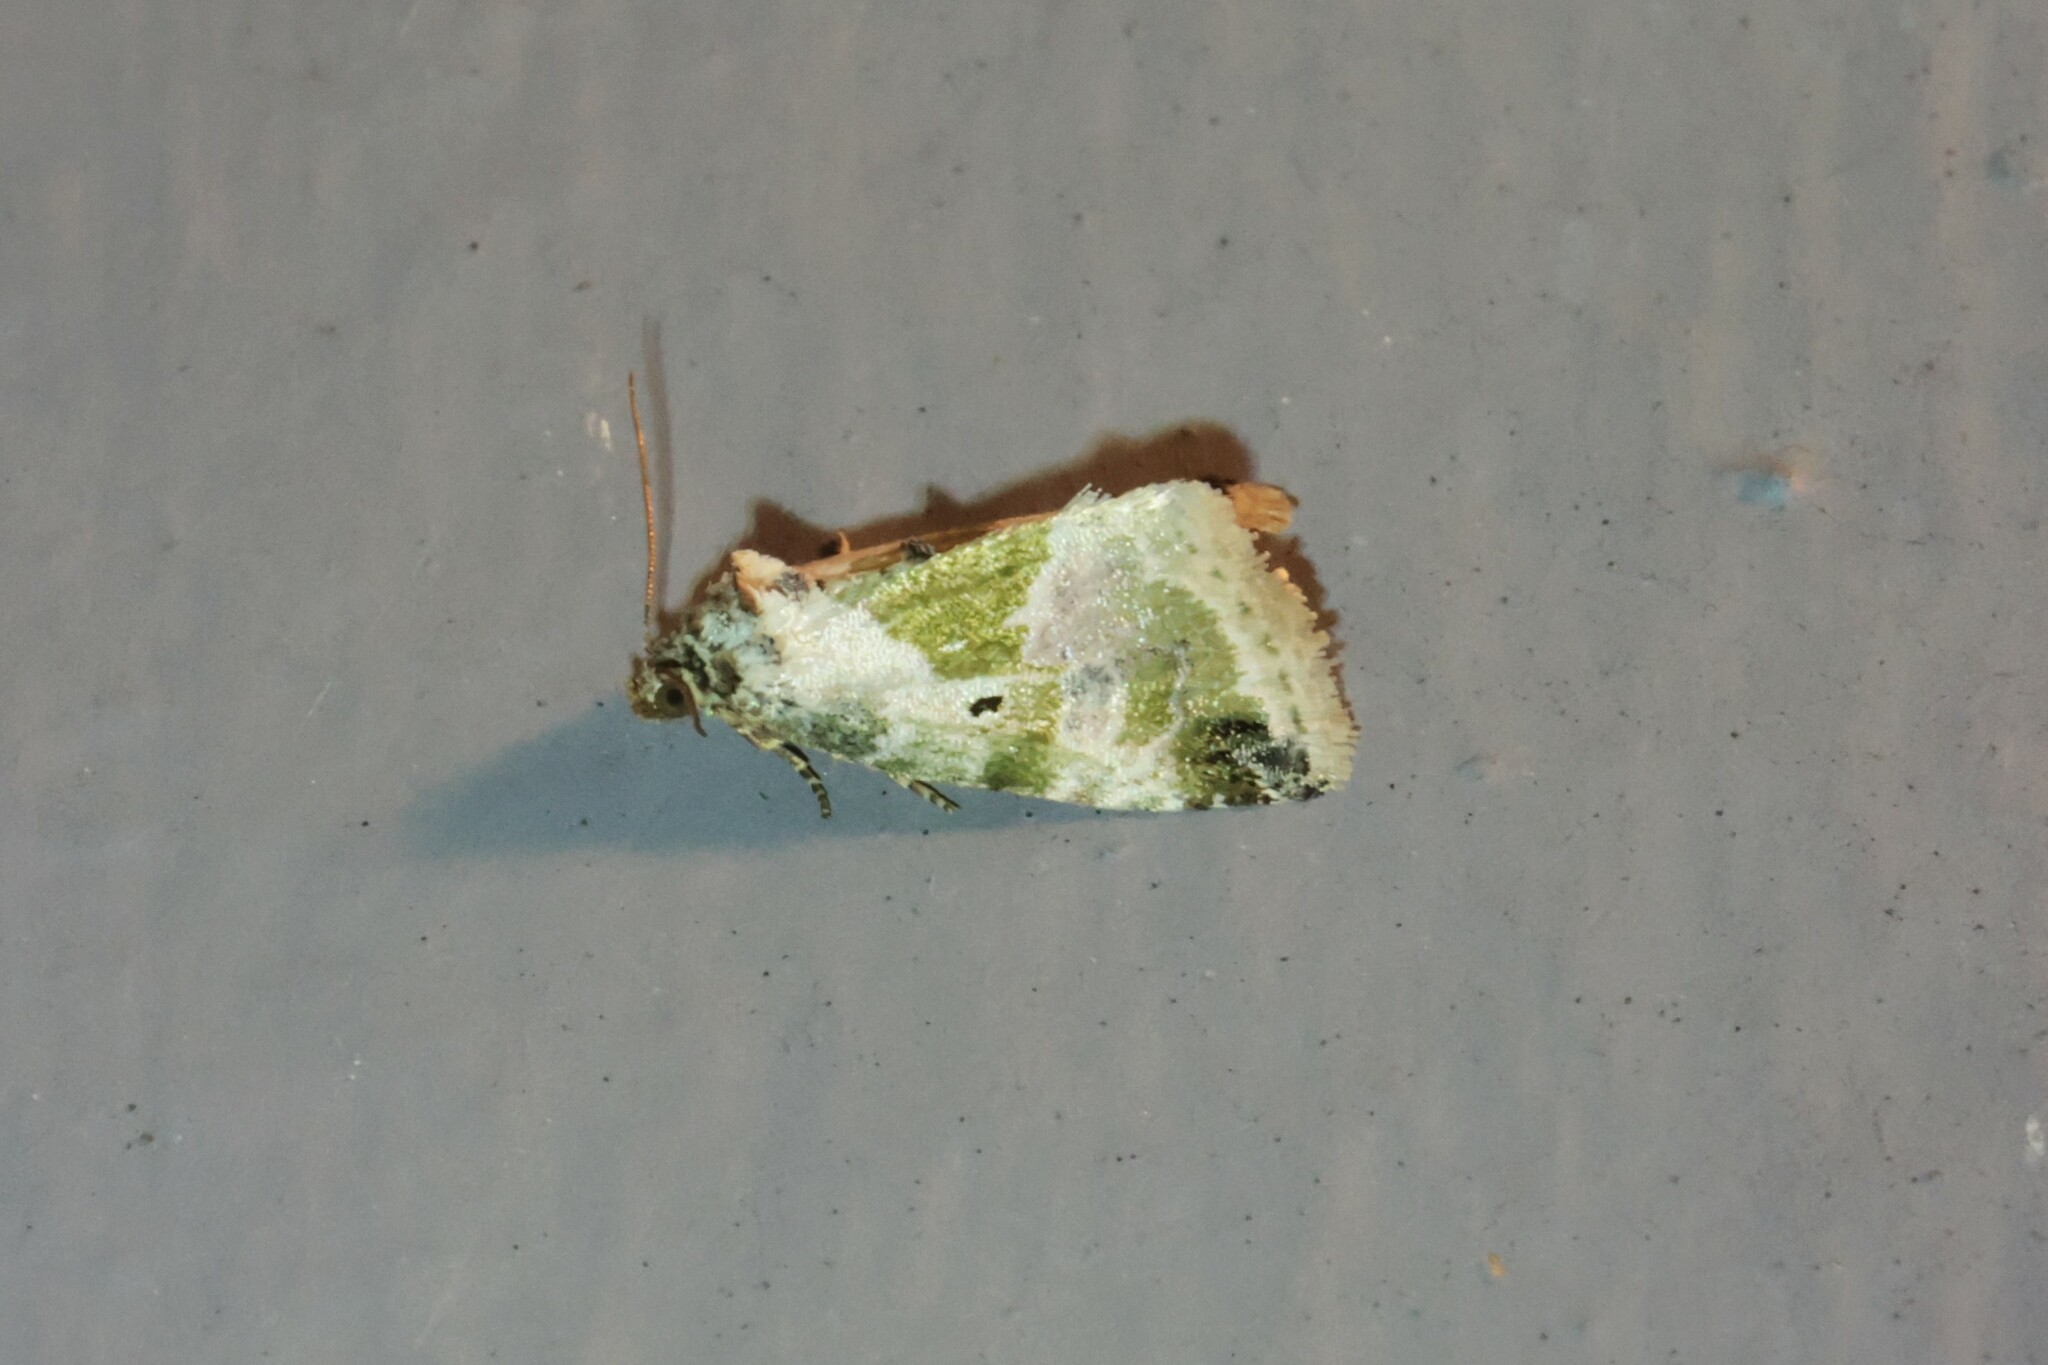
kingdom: Animalia
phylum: Arthropoda
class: Insecta
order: Lepidoptera
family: Noctuidae
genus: Maliattha
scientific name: Maliattha synochitis
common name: Black-dotted glyph
